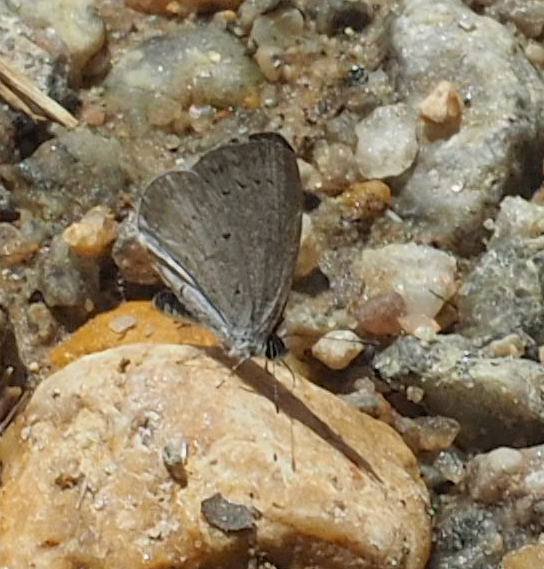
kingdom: Animalia
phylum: Arthropoda
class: Insecta
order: Lepidoptera
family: Lycaenidae
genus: Cyaniris
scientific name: Cyaniris neglecta
